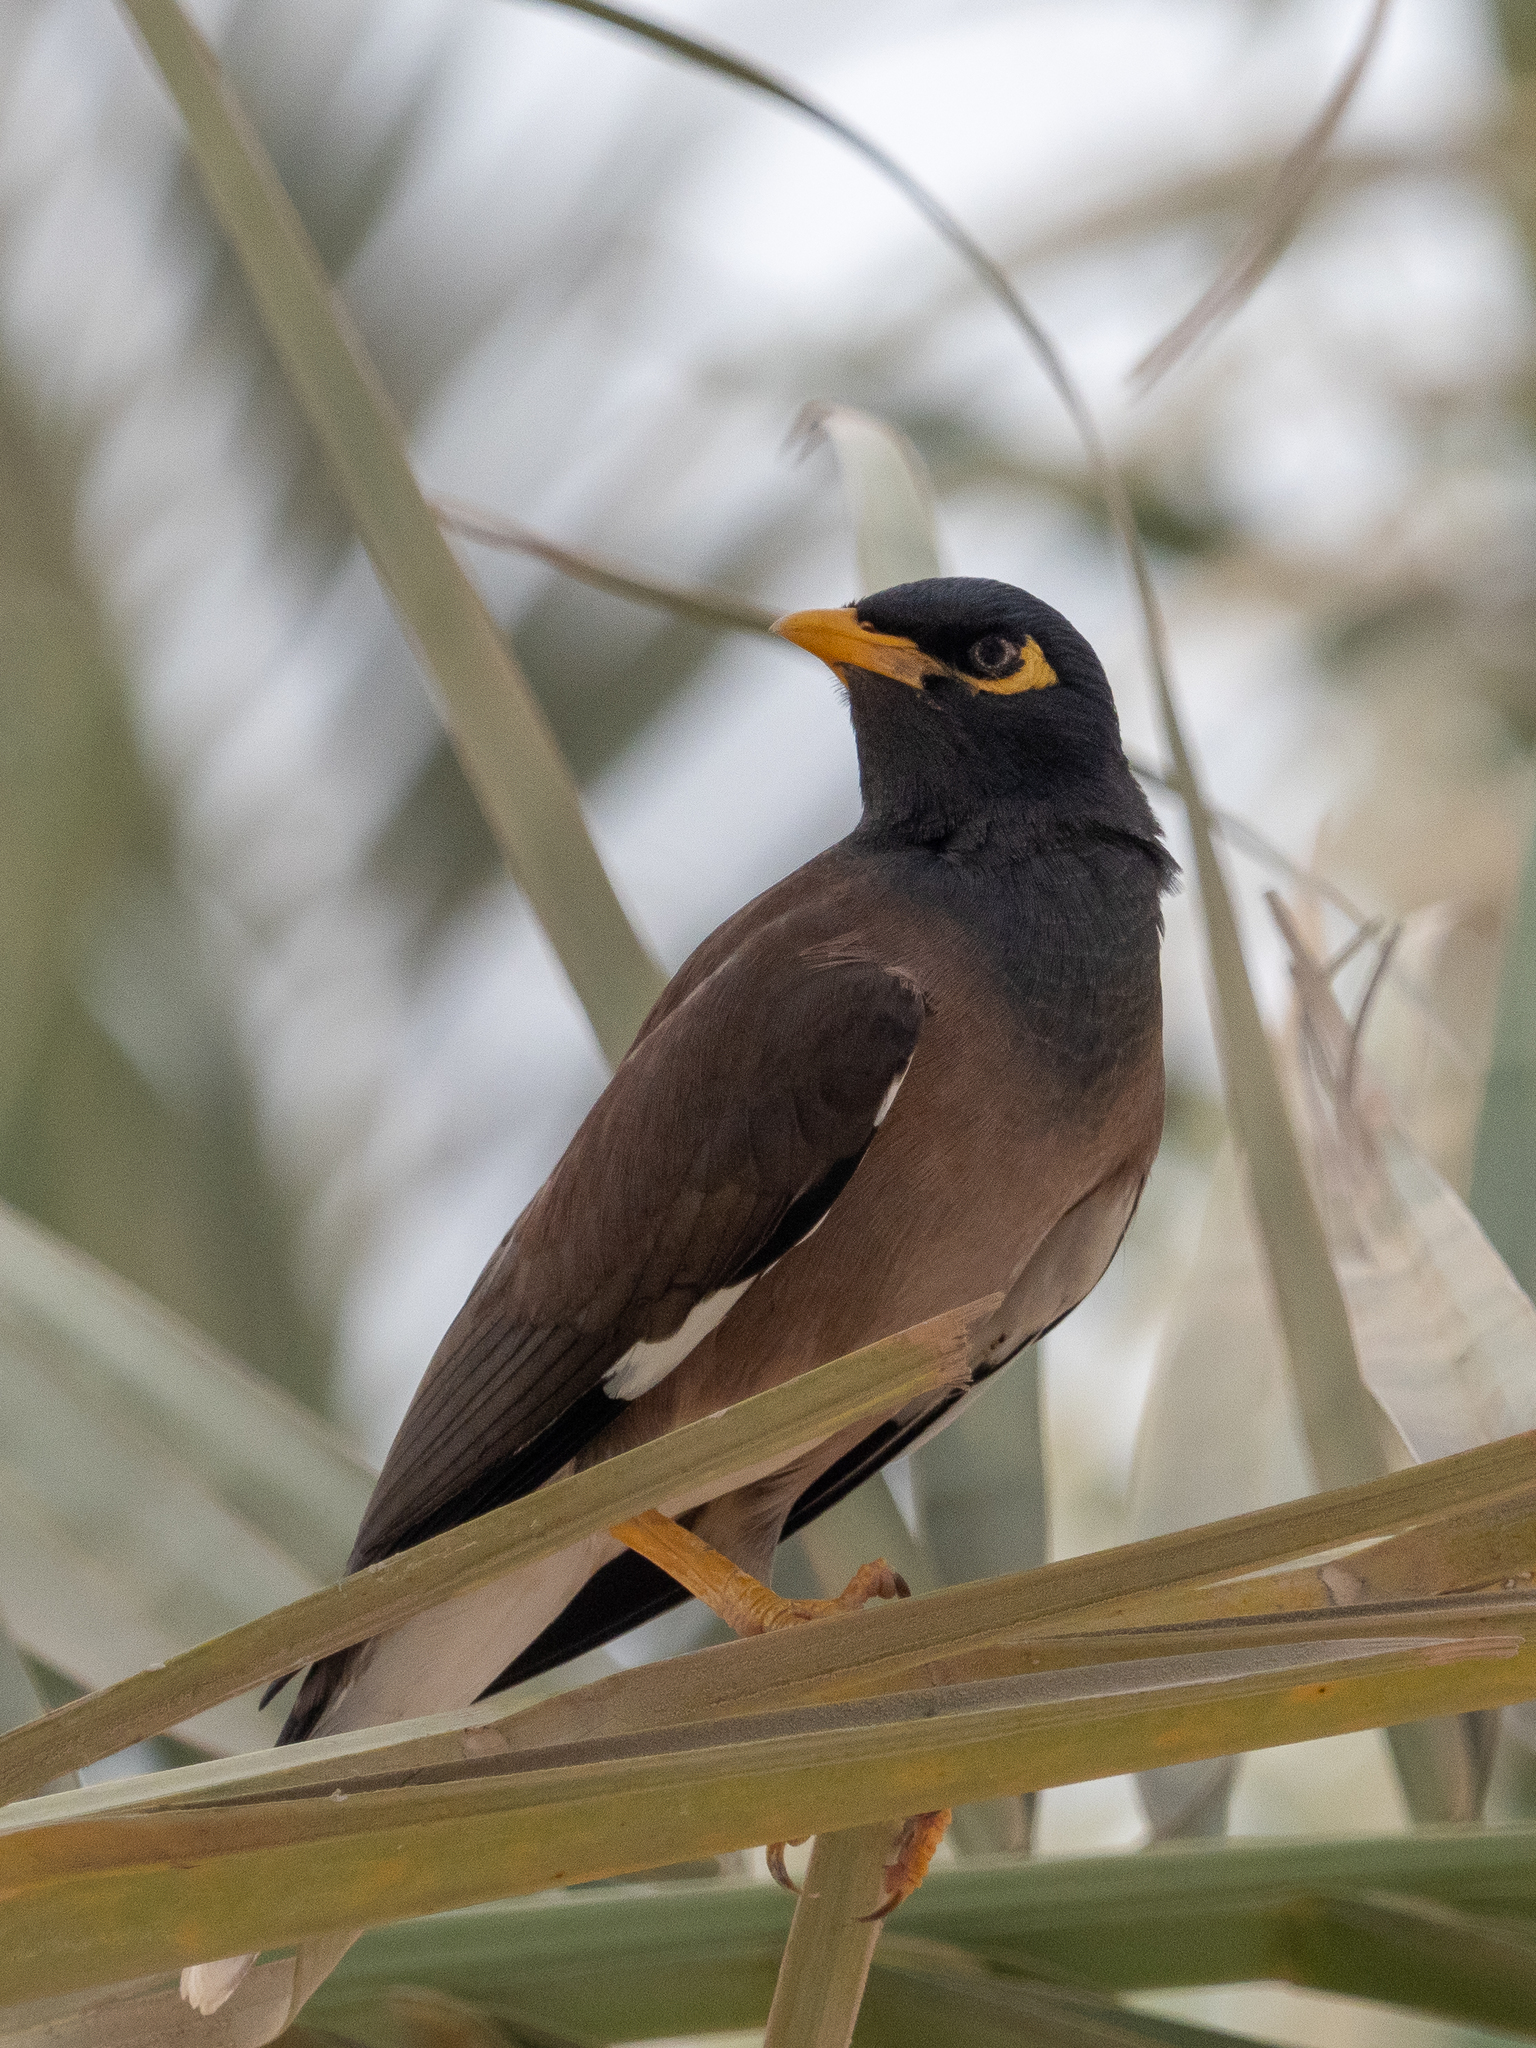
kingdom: Animalia
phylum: Chordata
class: Aves
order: Passeriformes
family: Sturnidae
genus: Acridotheres
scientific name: Acridotheres tristis
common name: Common myna
